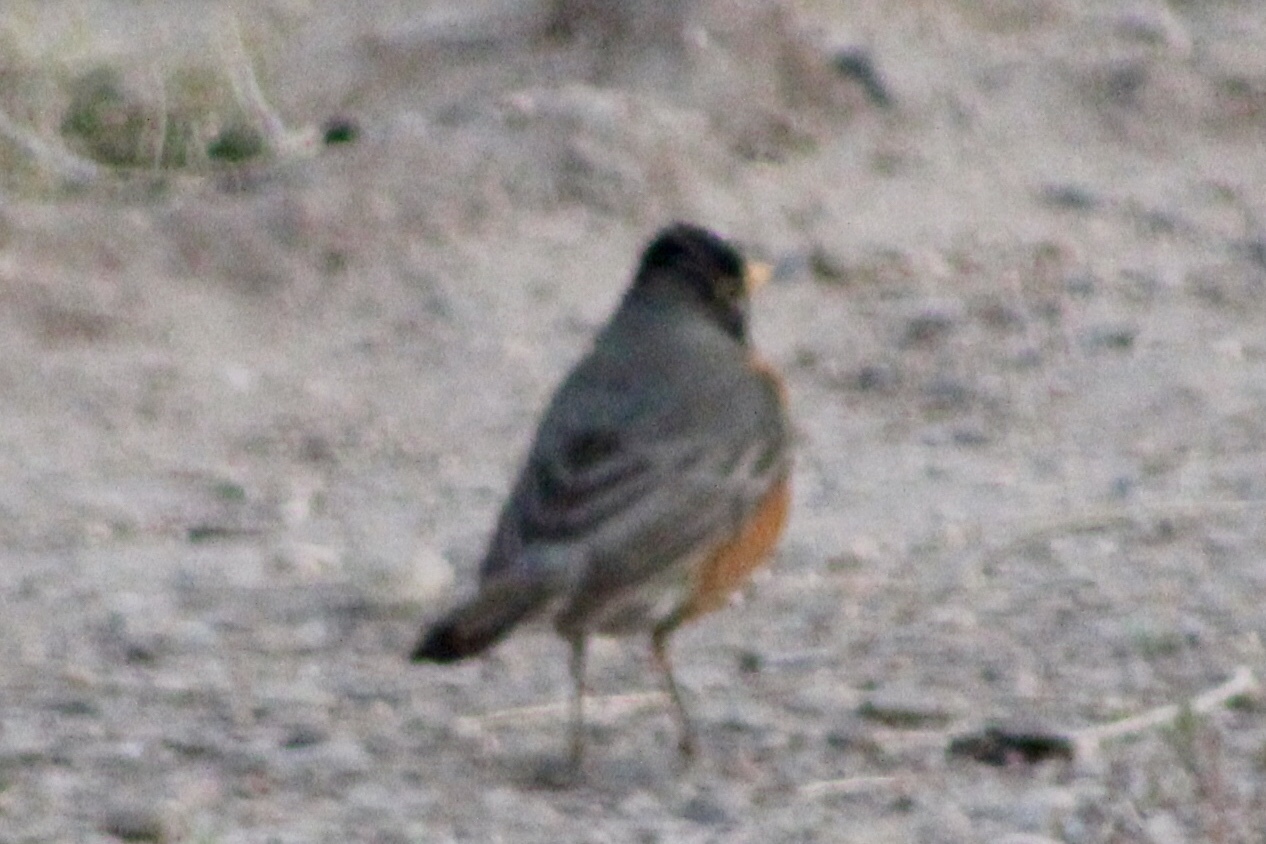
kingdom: Animalia
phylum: Chordata
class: Aves
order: Passeriformes
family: Turdidae
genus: Turdus
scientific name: Turdus migratorius
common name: American robin
